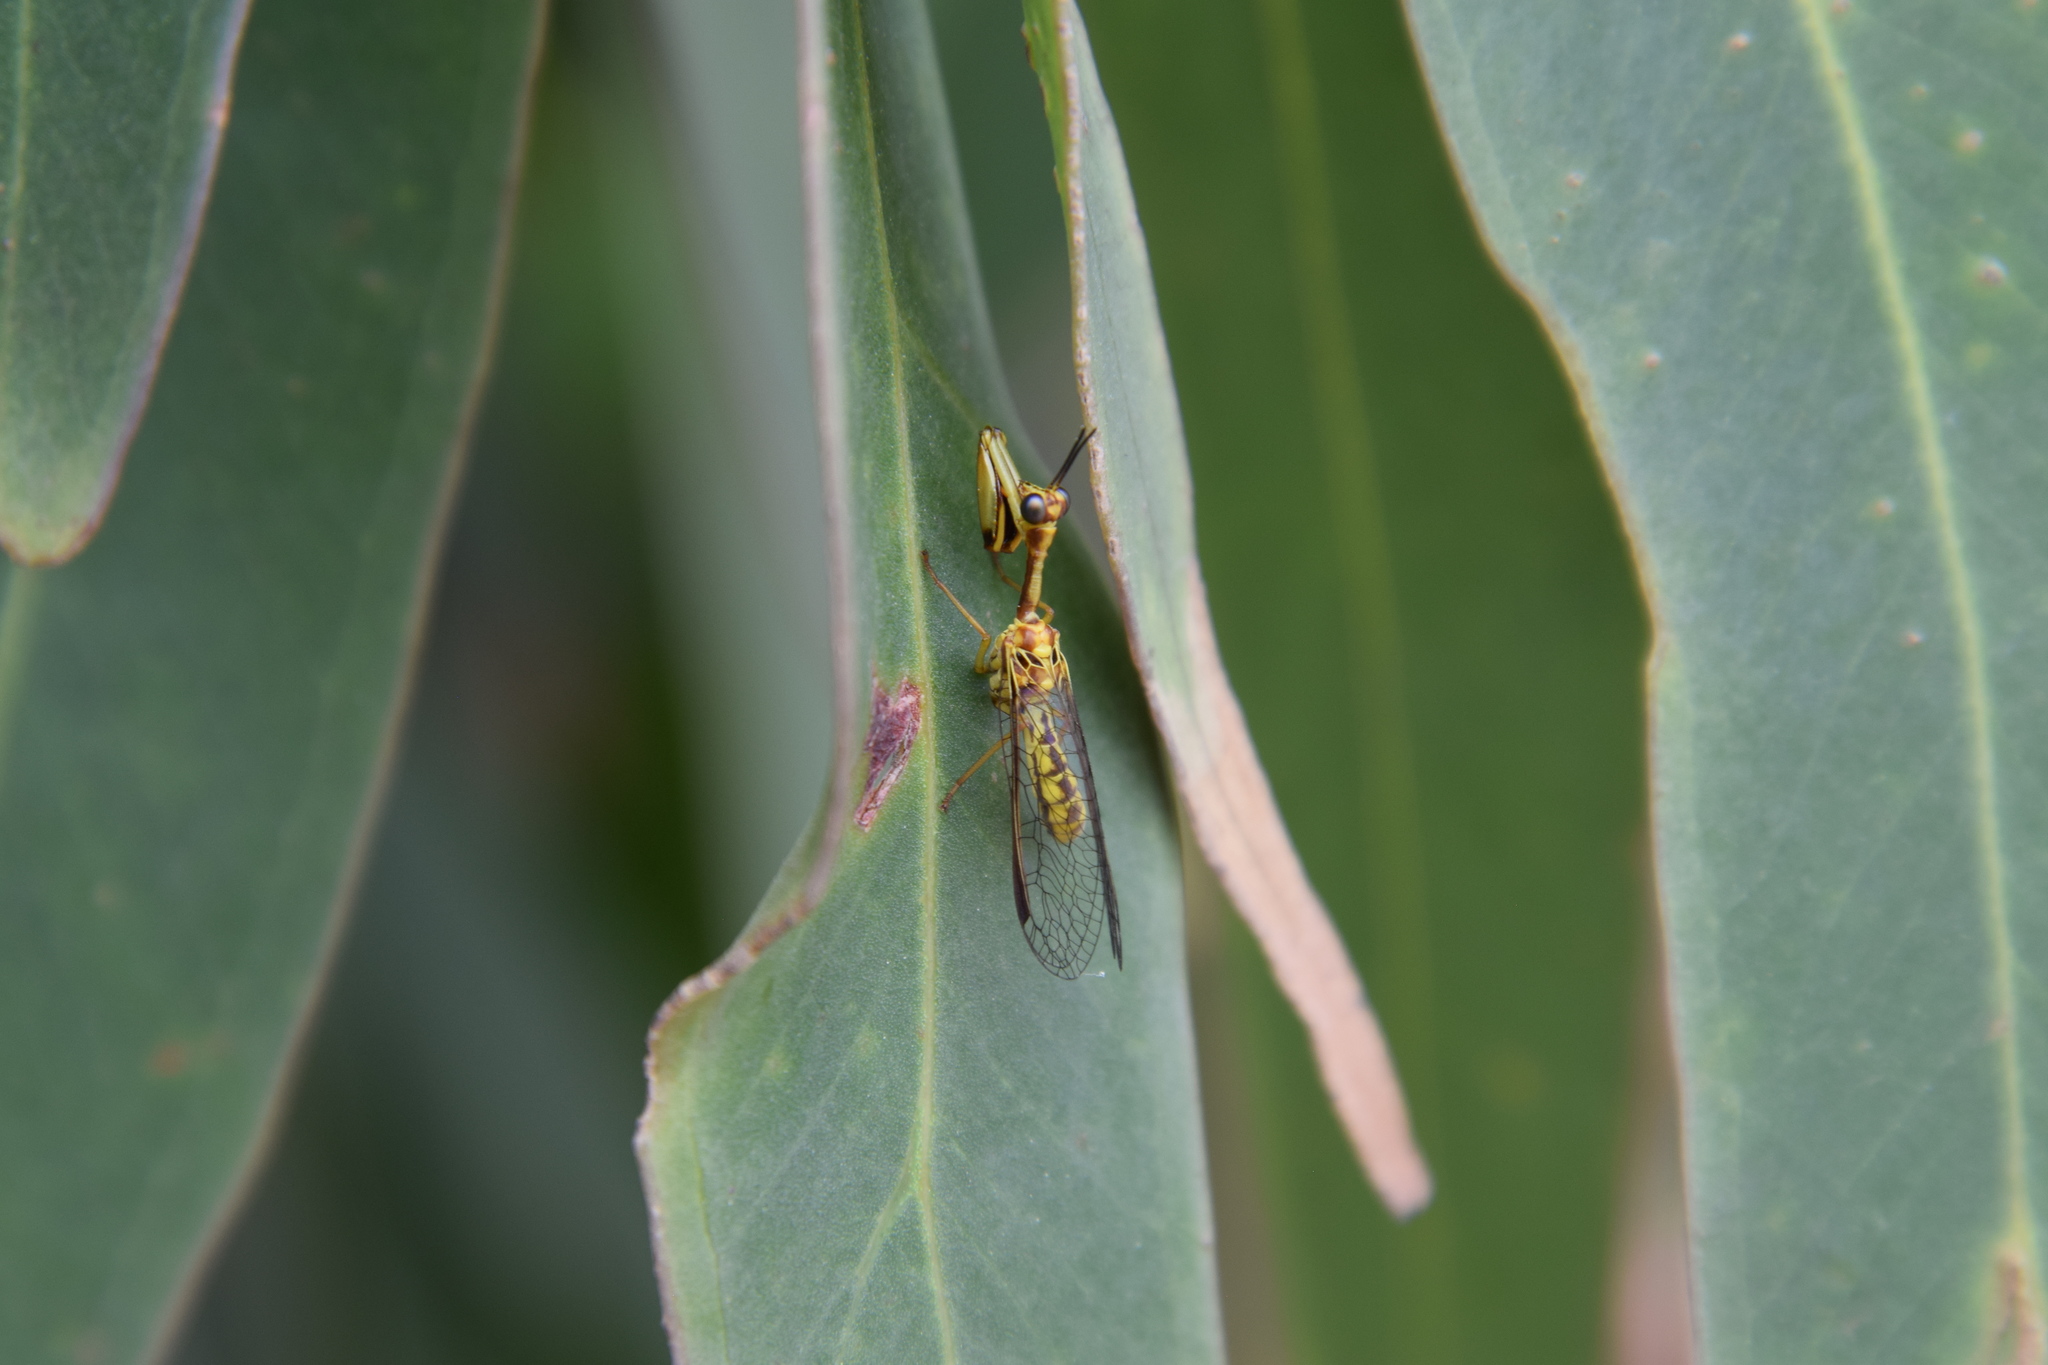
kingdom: Animalia
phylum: Arthropoda
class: Insecta
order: Neuroptera
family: Mantispidae
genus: Spaminta
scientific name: Spaminta minjerribae
